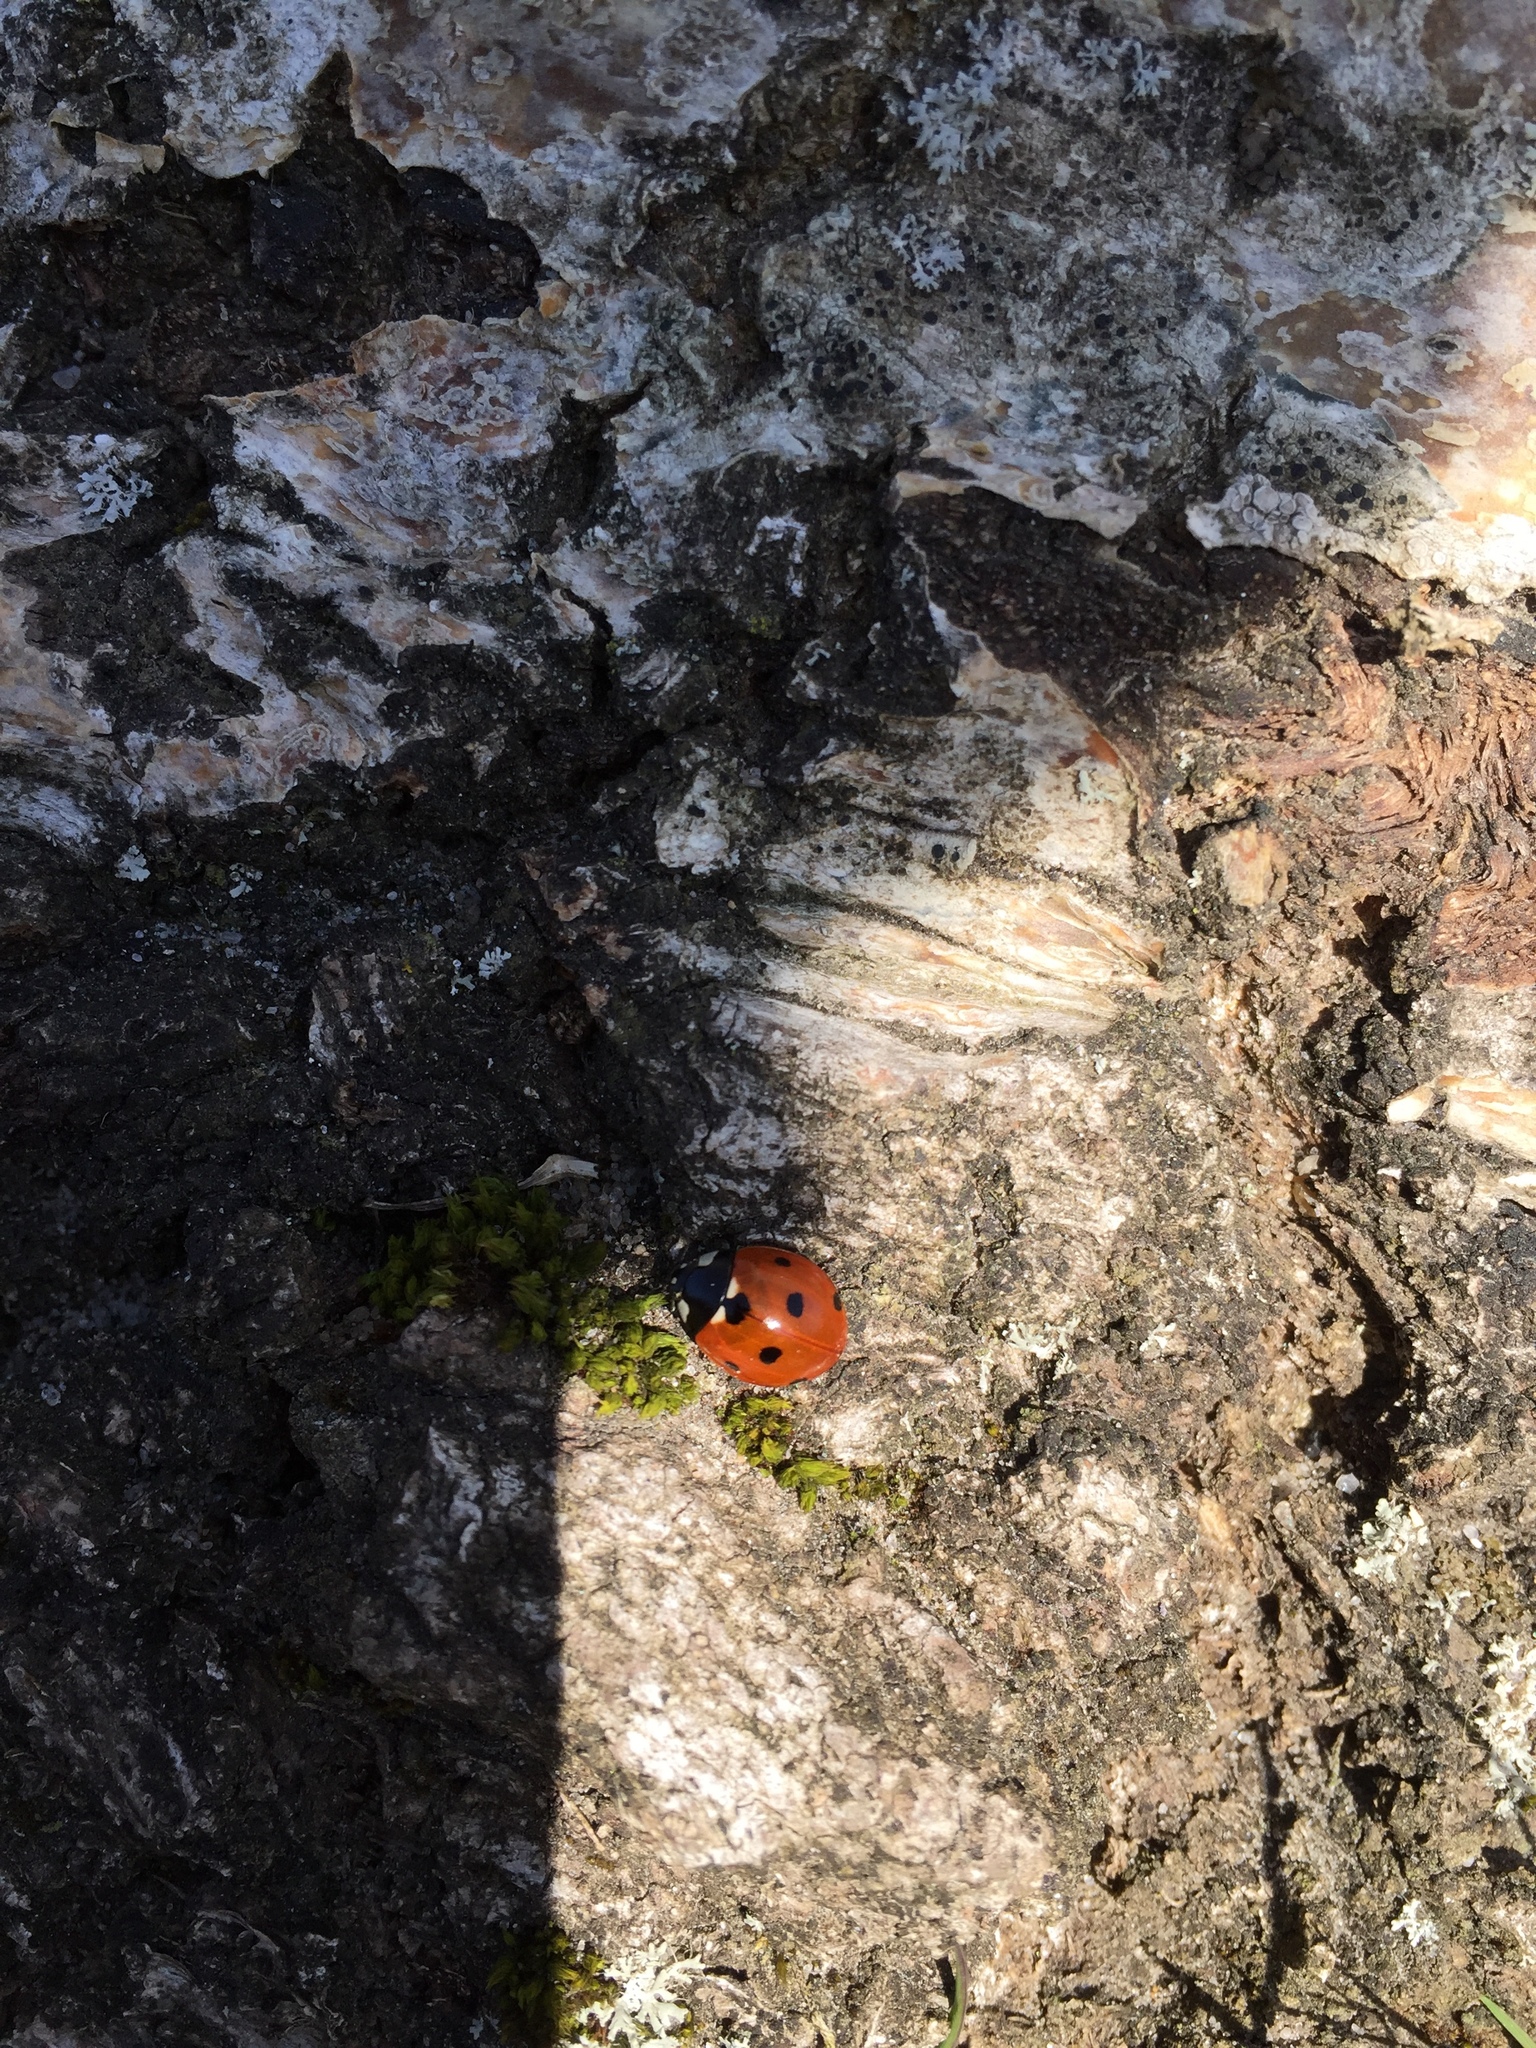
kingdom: Animalia
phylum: Arthropoda
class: Insecta
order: Coleoptera
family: Coccinellidae
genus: Coccinella
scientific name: Coccinella septempunctata
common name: Sevenspotted lady beetle
